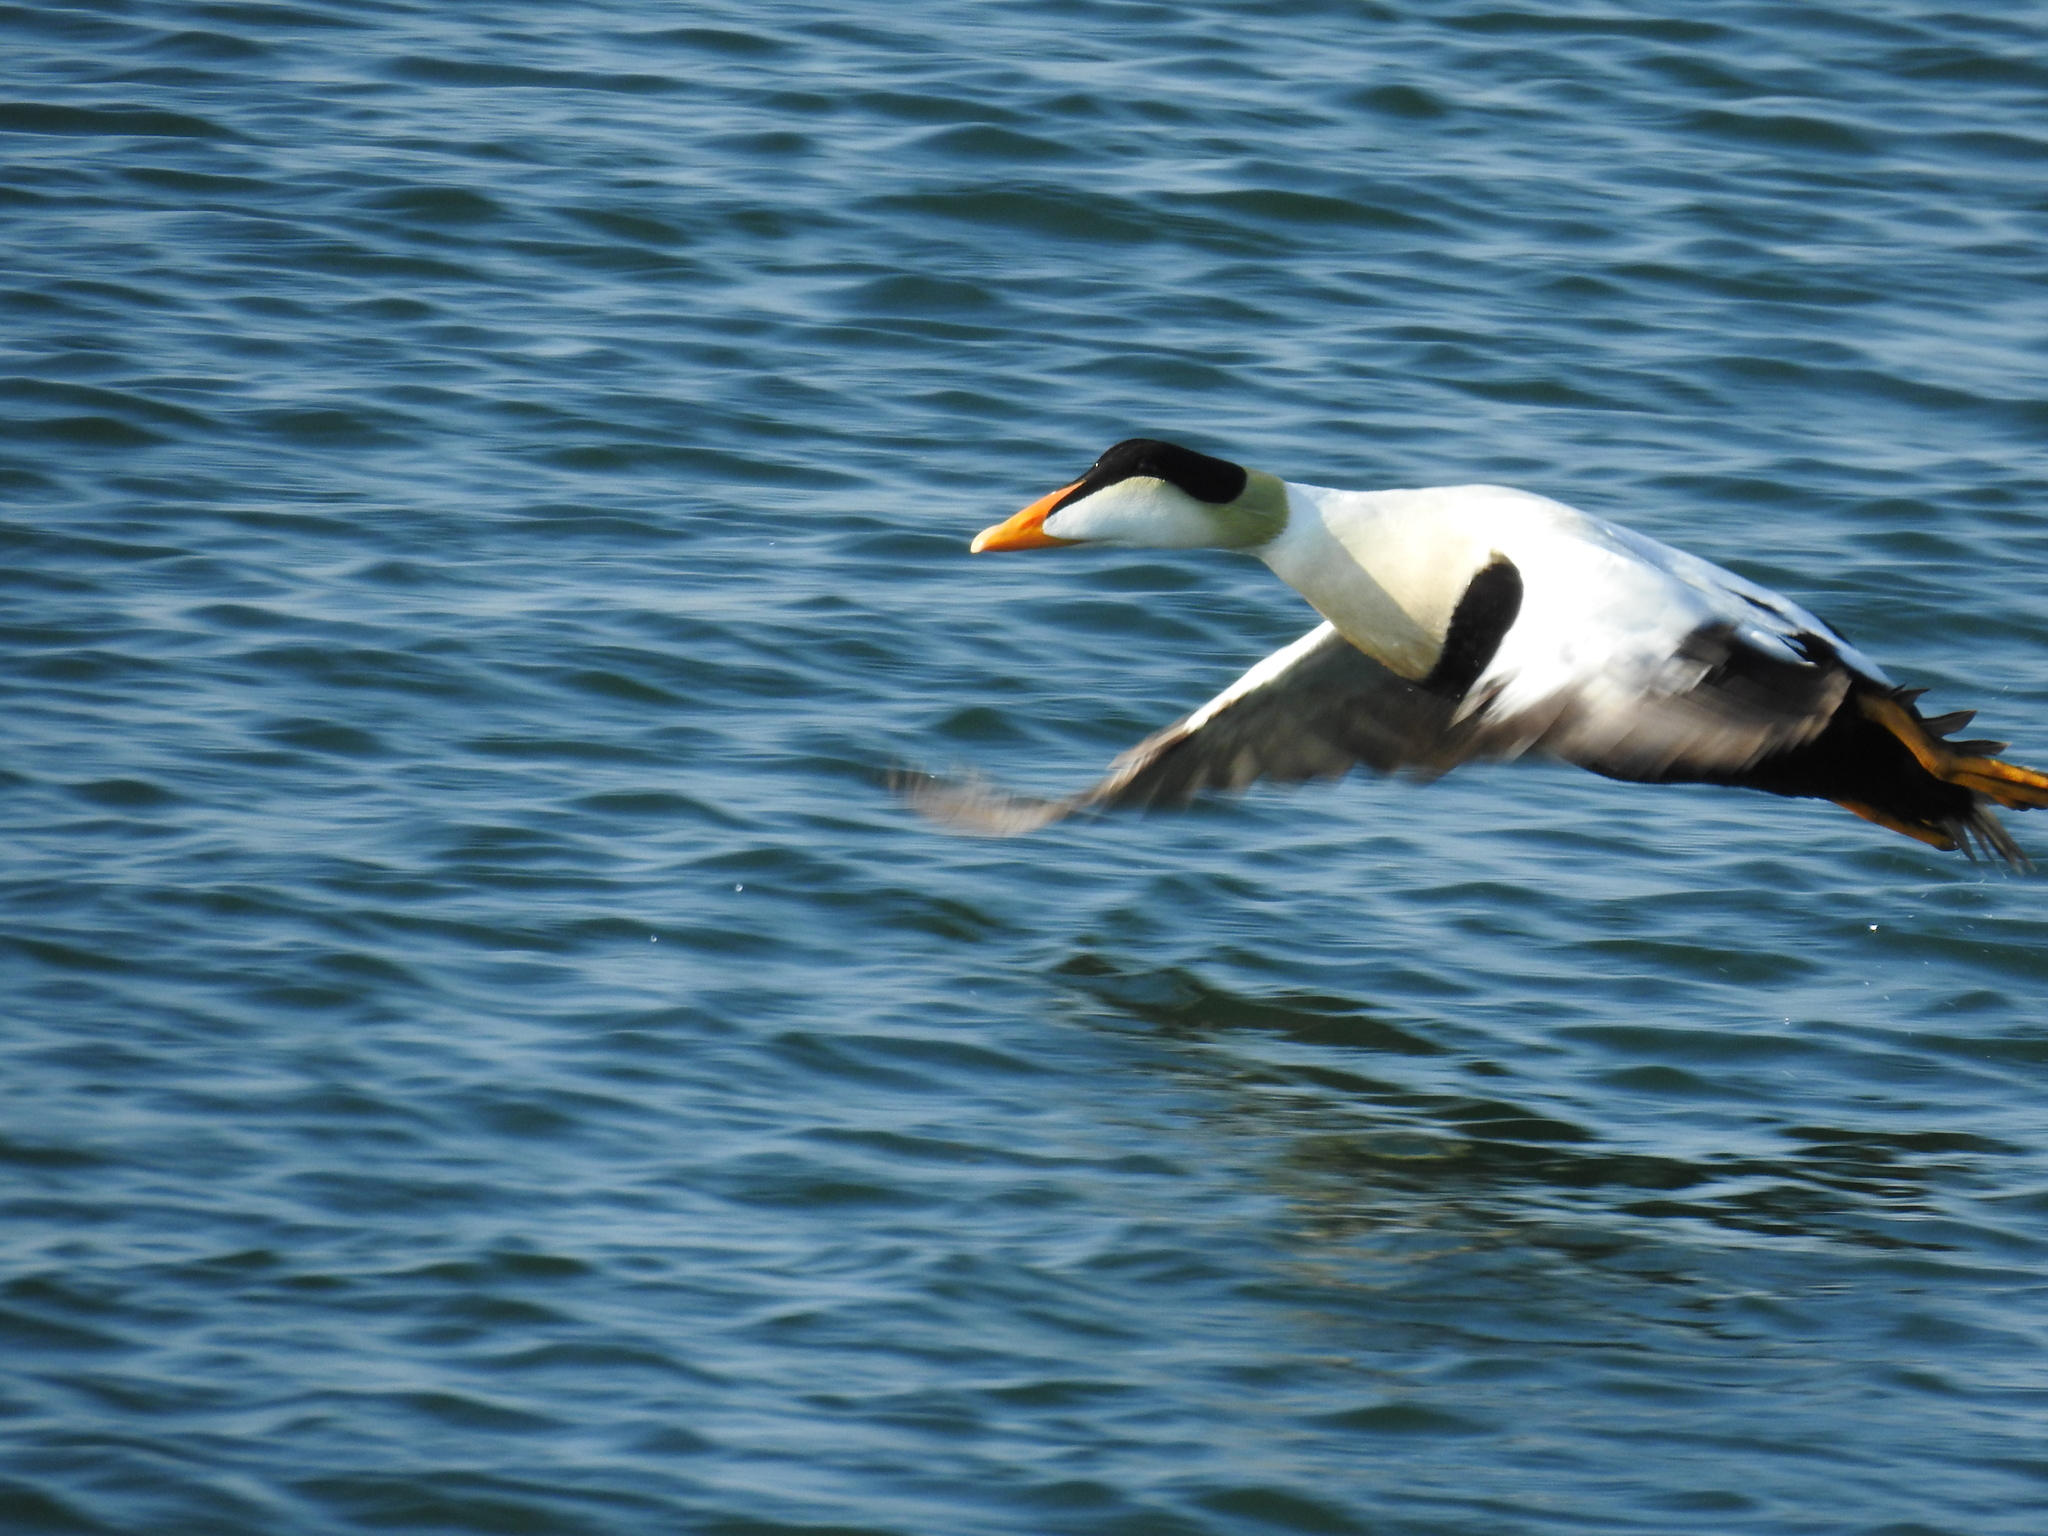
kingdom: Animalia
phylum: Chordata
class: Aves
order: Anseriformes
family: Anatidae
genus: Somateria
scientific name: Somateria mollissima
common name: Common eider
